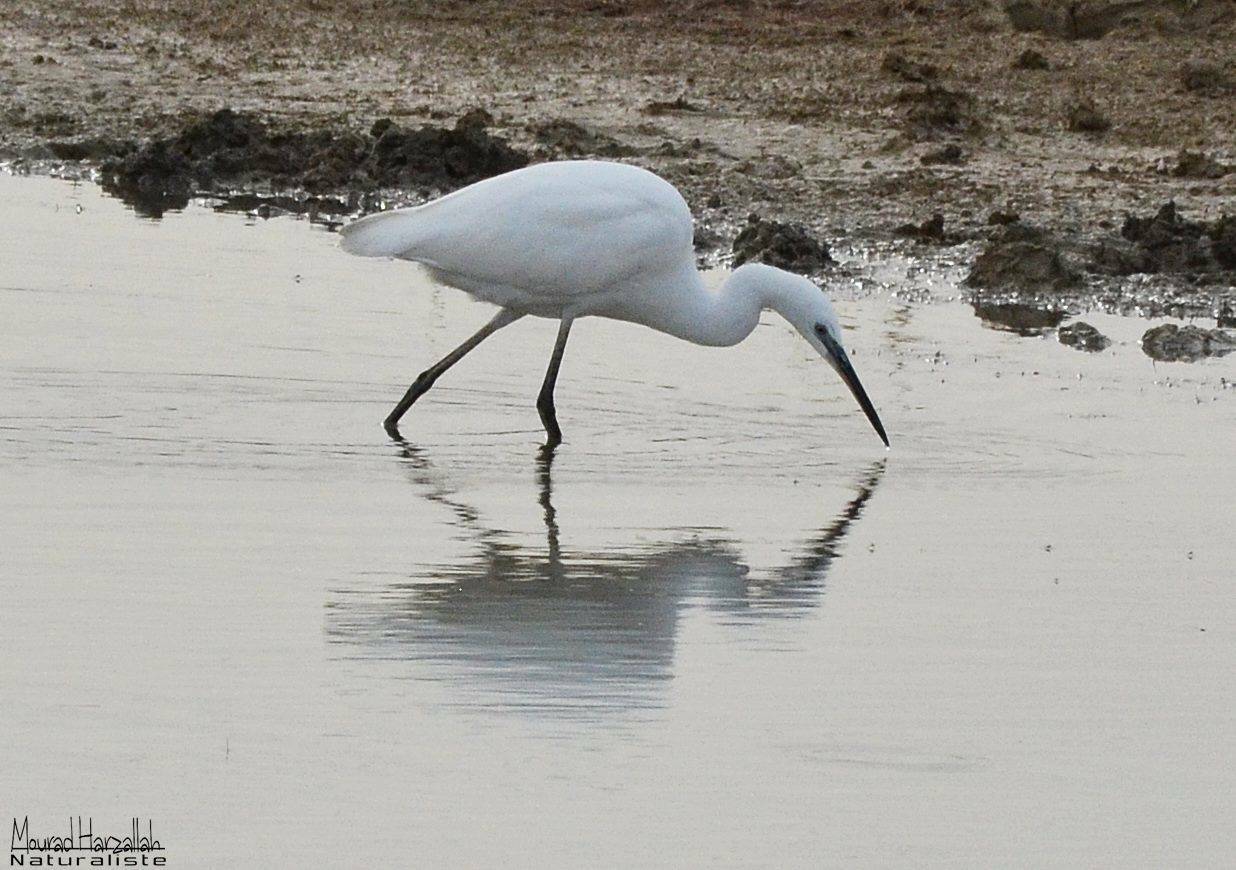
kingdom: Animalia
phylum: Chordata
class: Aves
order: Pelecaniformes
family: Ardeidae
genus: Egretta
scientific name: Egretta garzetta
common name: Little egret
